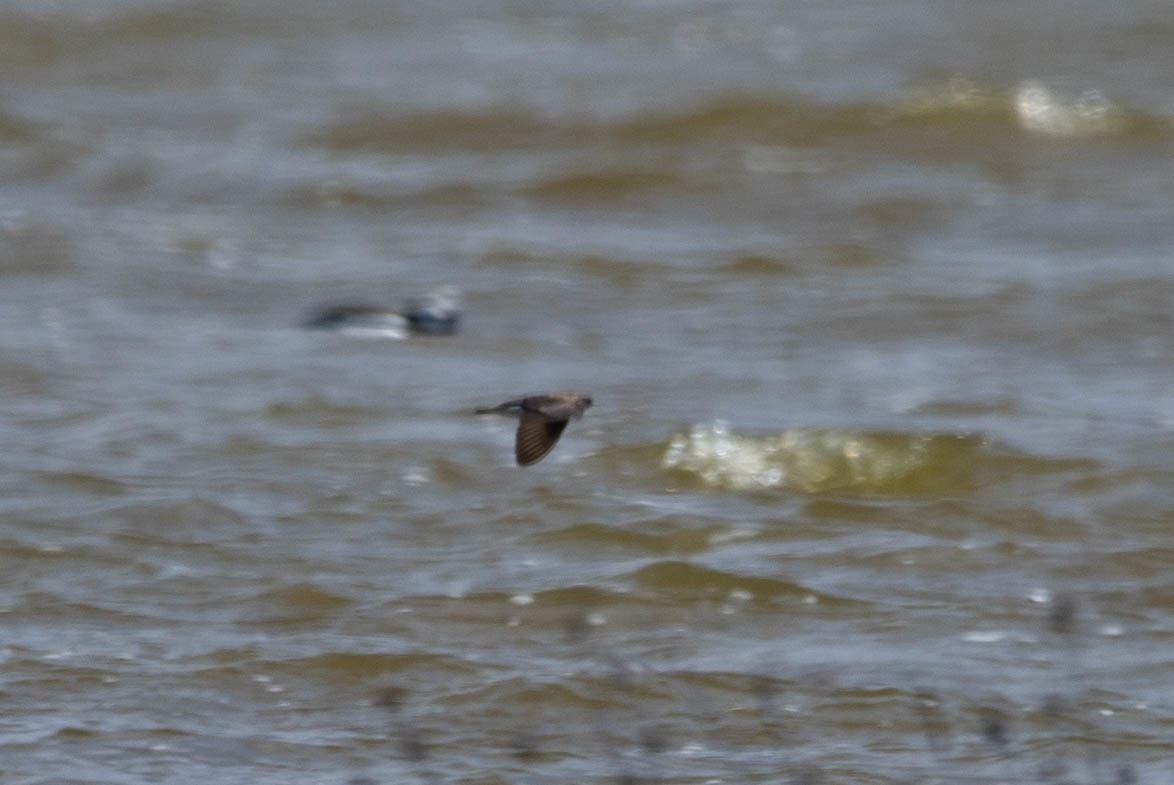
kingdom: Animalia
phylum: Chordata
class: Aves
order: Passeriformes
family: Hirundinidae
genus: Stelgidopteryx
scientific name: Stelgidopteryx serripennis
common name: Northern rough-winged swallow
